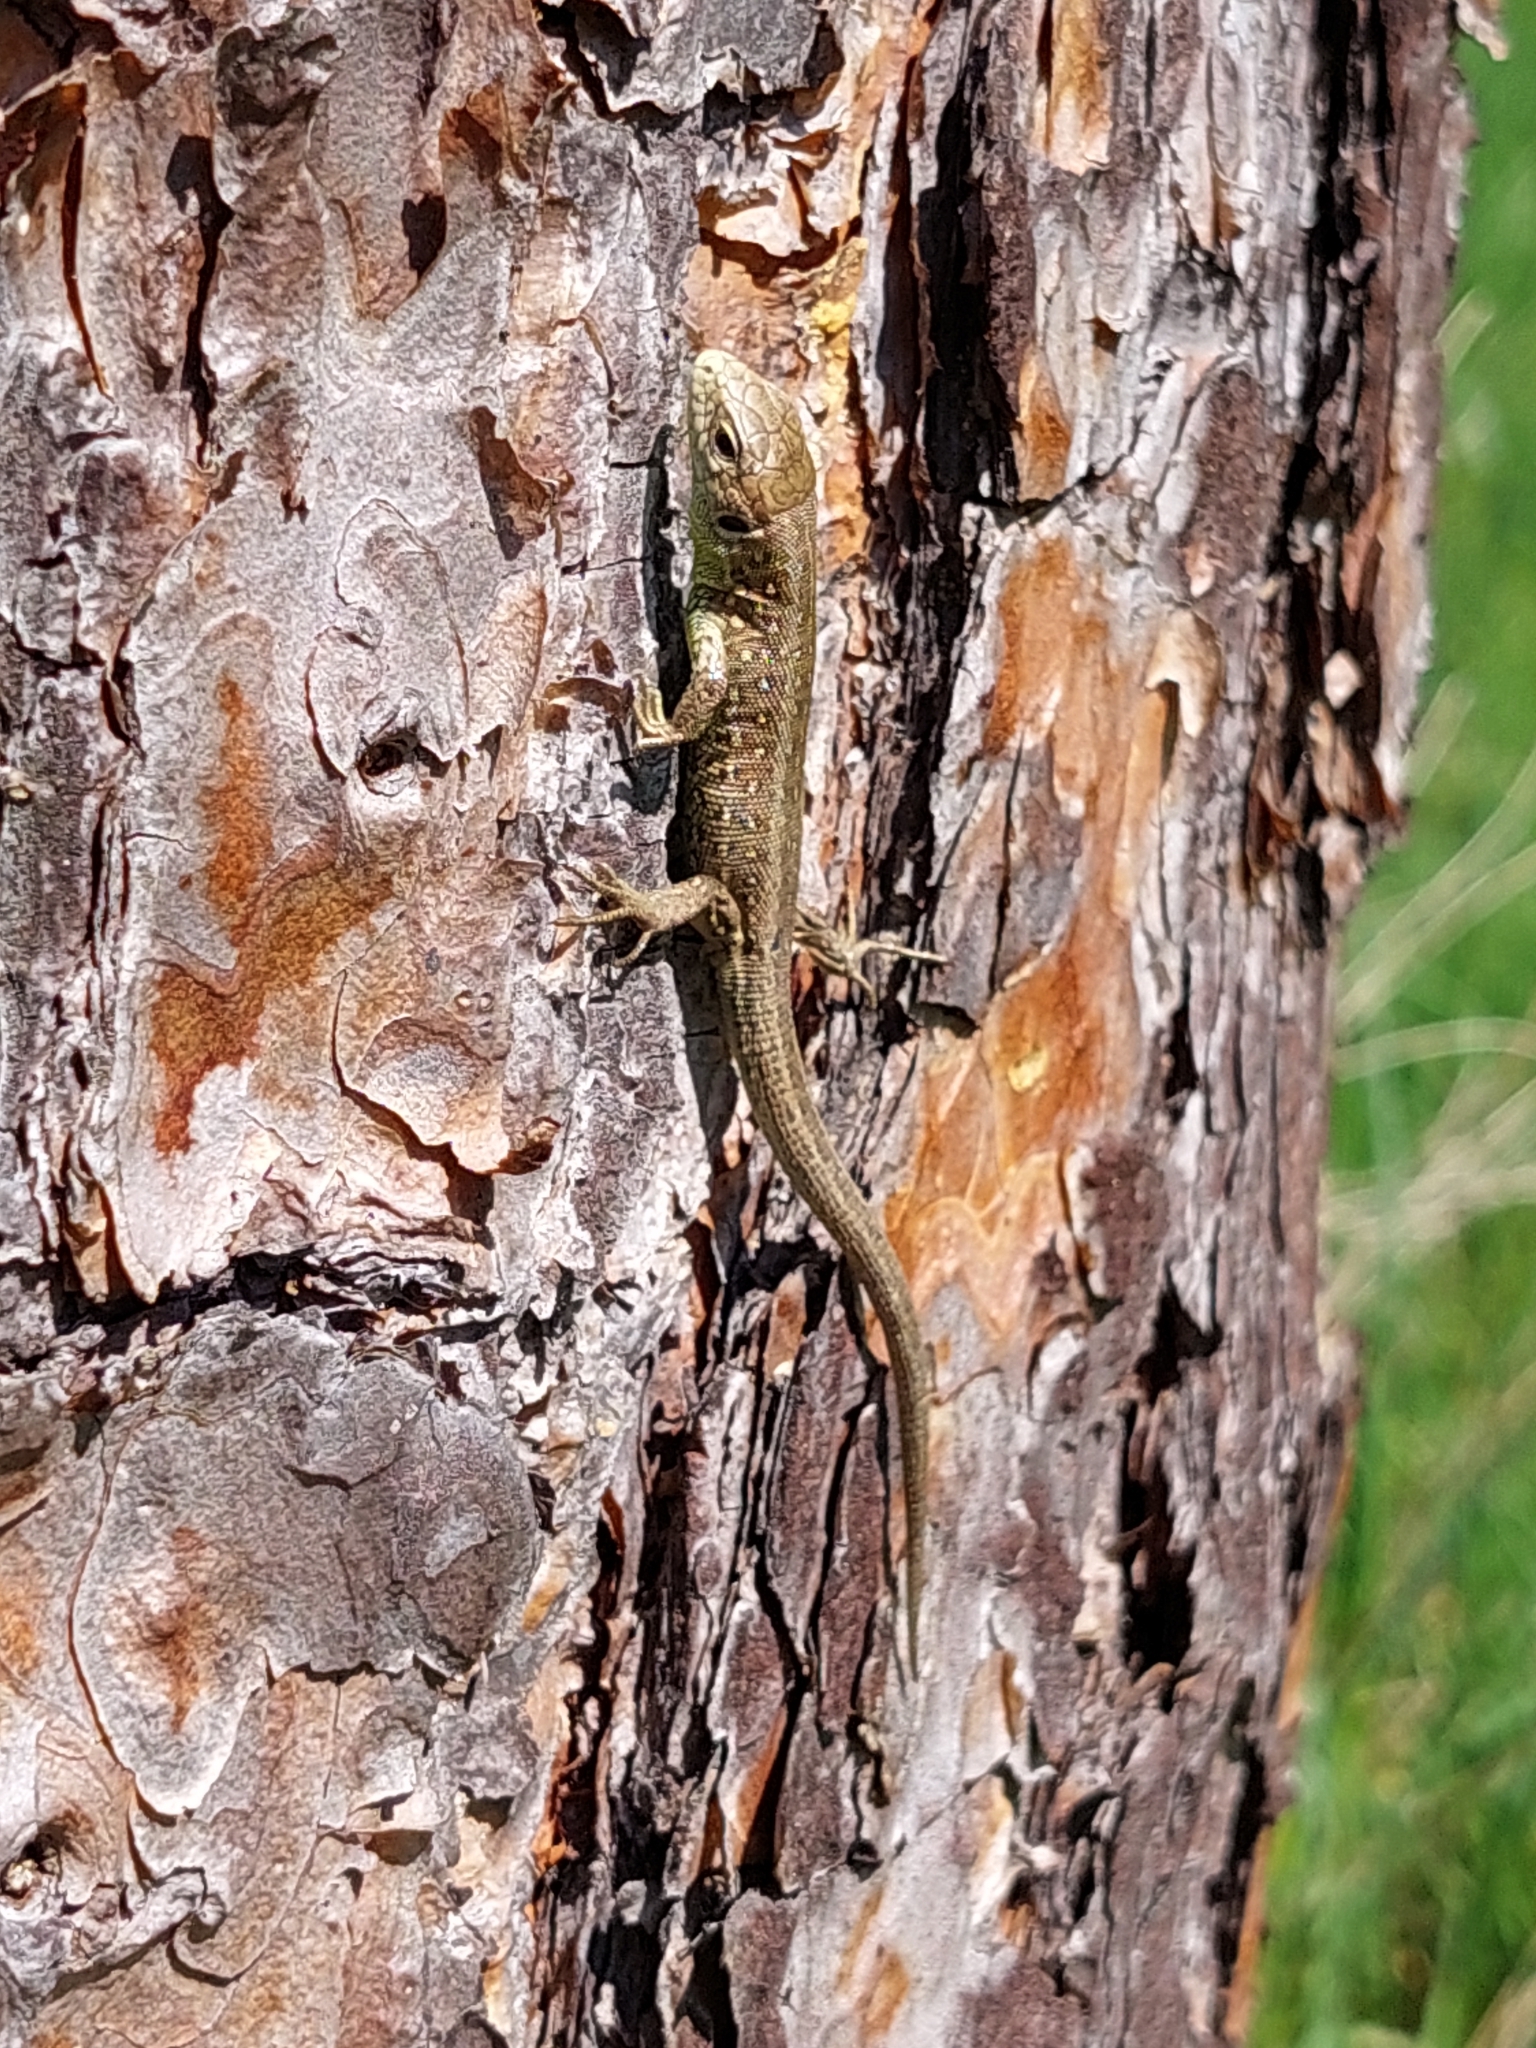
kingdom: Animalia
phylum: Chordata
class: Squamata
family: Lacertidae
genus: Lacerta
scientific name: Lacerta agilis
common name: Sand lizard
